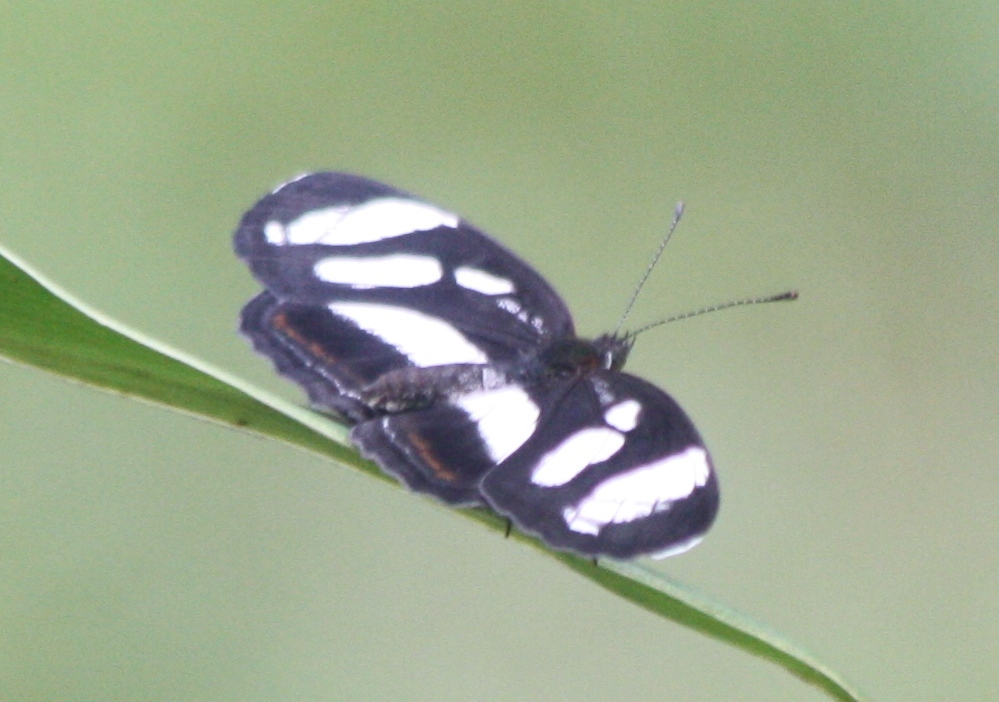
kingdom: Animalia
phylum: Arthropoda
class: Insecta
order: Lepidoptera
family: Nymphalidae
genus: Eresia
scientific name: Eresia nauplius
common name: Nauplius crescent
